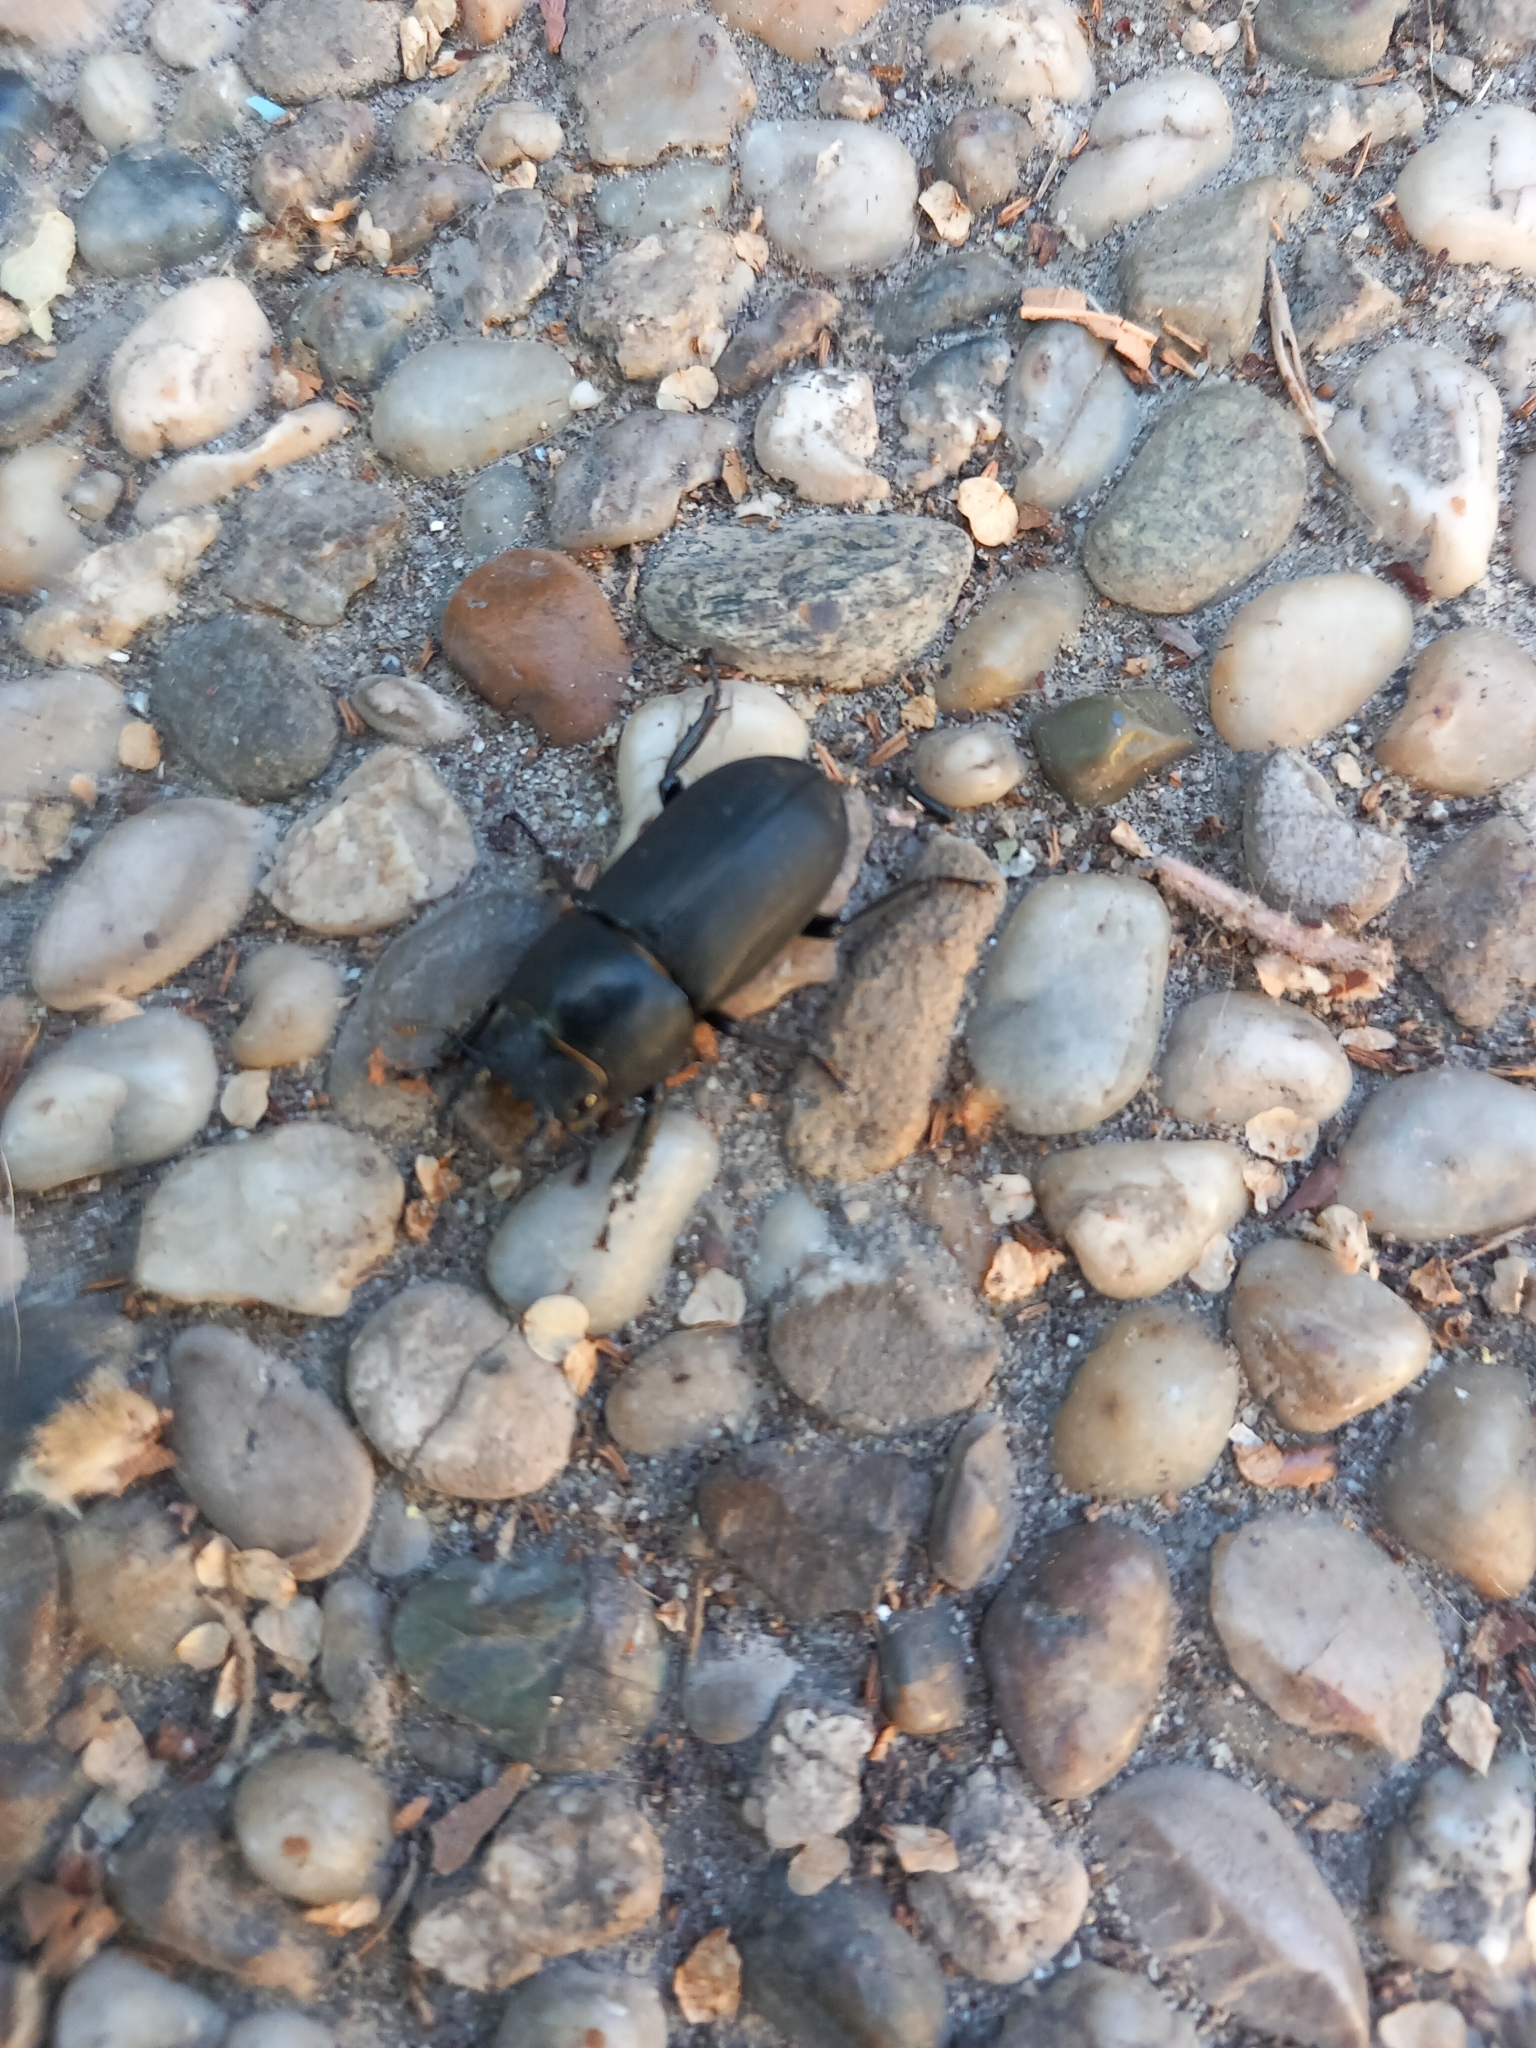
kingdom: Animalia
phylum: Arthropoda
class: Insecta
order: Coleoptera
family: Lucanidae
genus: Dorcus
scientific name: Dorcus parallelipipedus
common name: Lesser stag beetle
